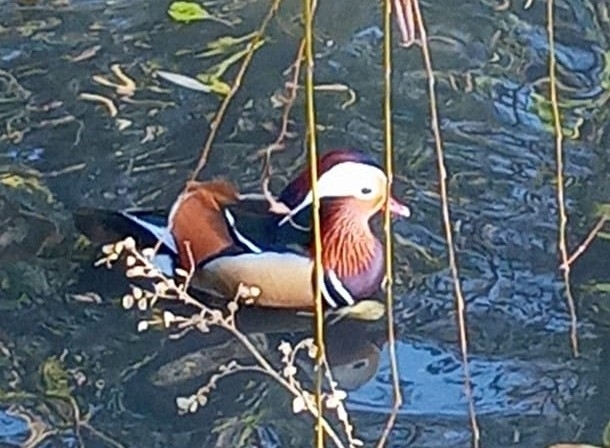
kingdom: Animalia
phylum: Chordata
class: Aves
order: Anseriformes
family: Anatidae
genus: Aix
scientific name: Aix galericulata
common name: Mandarin duck
